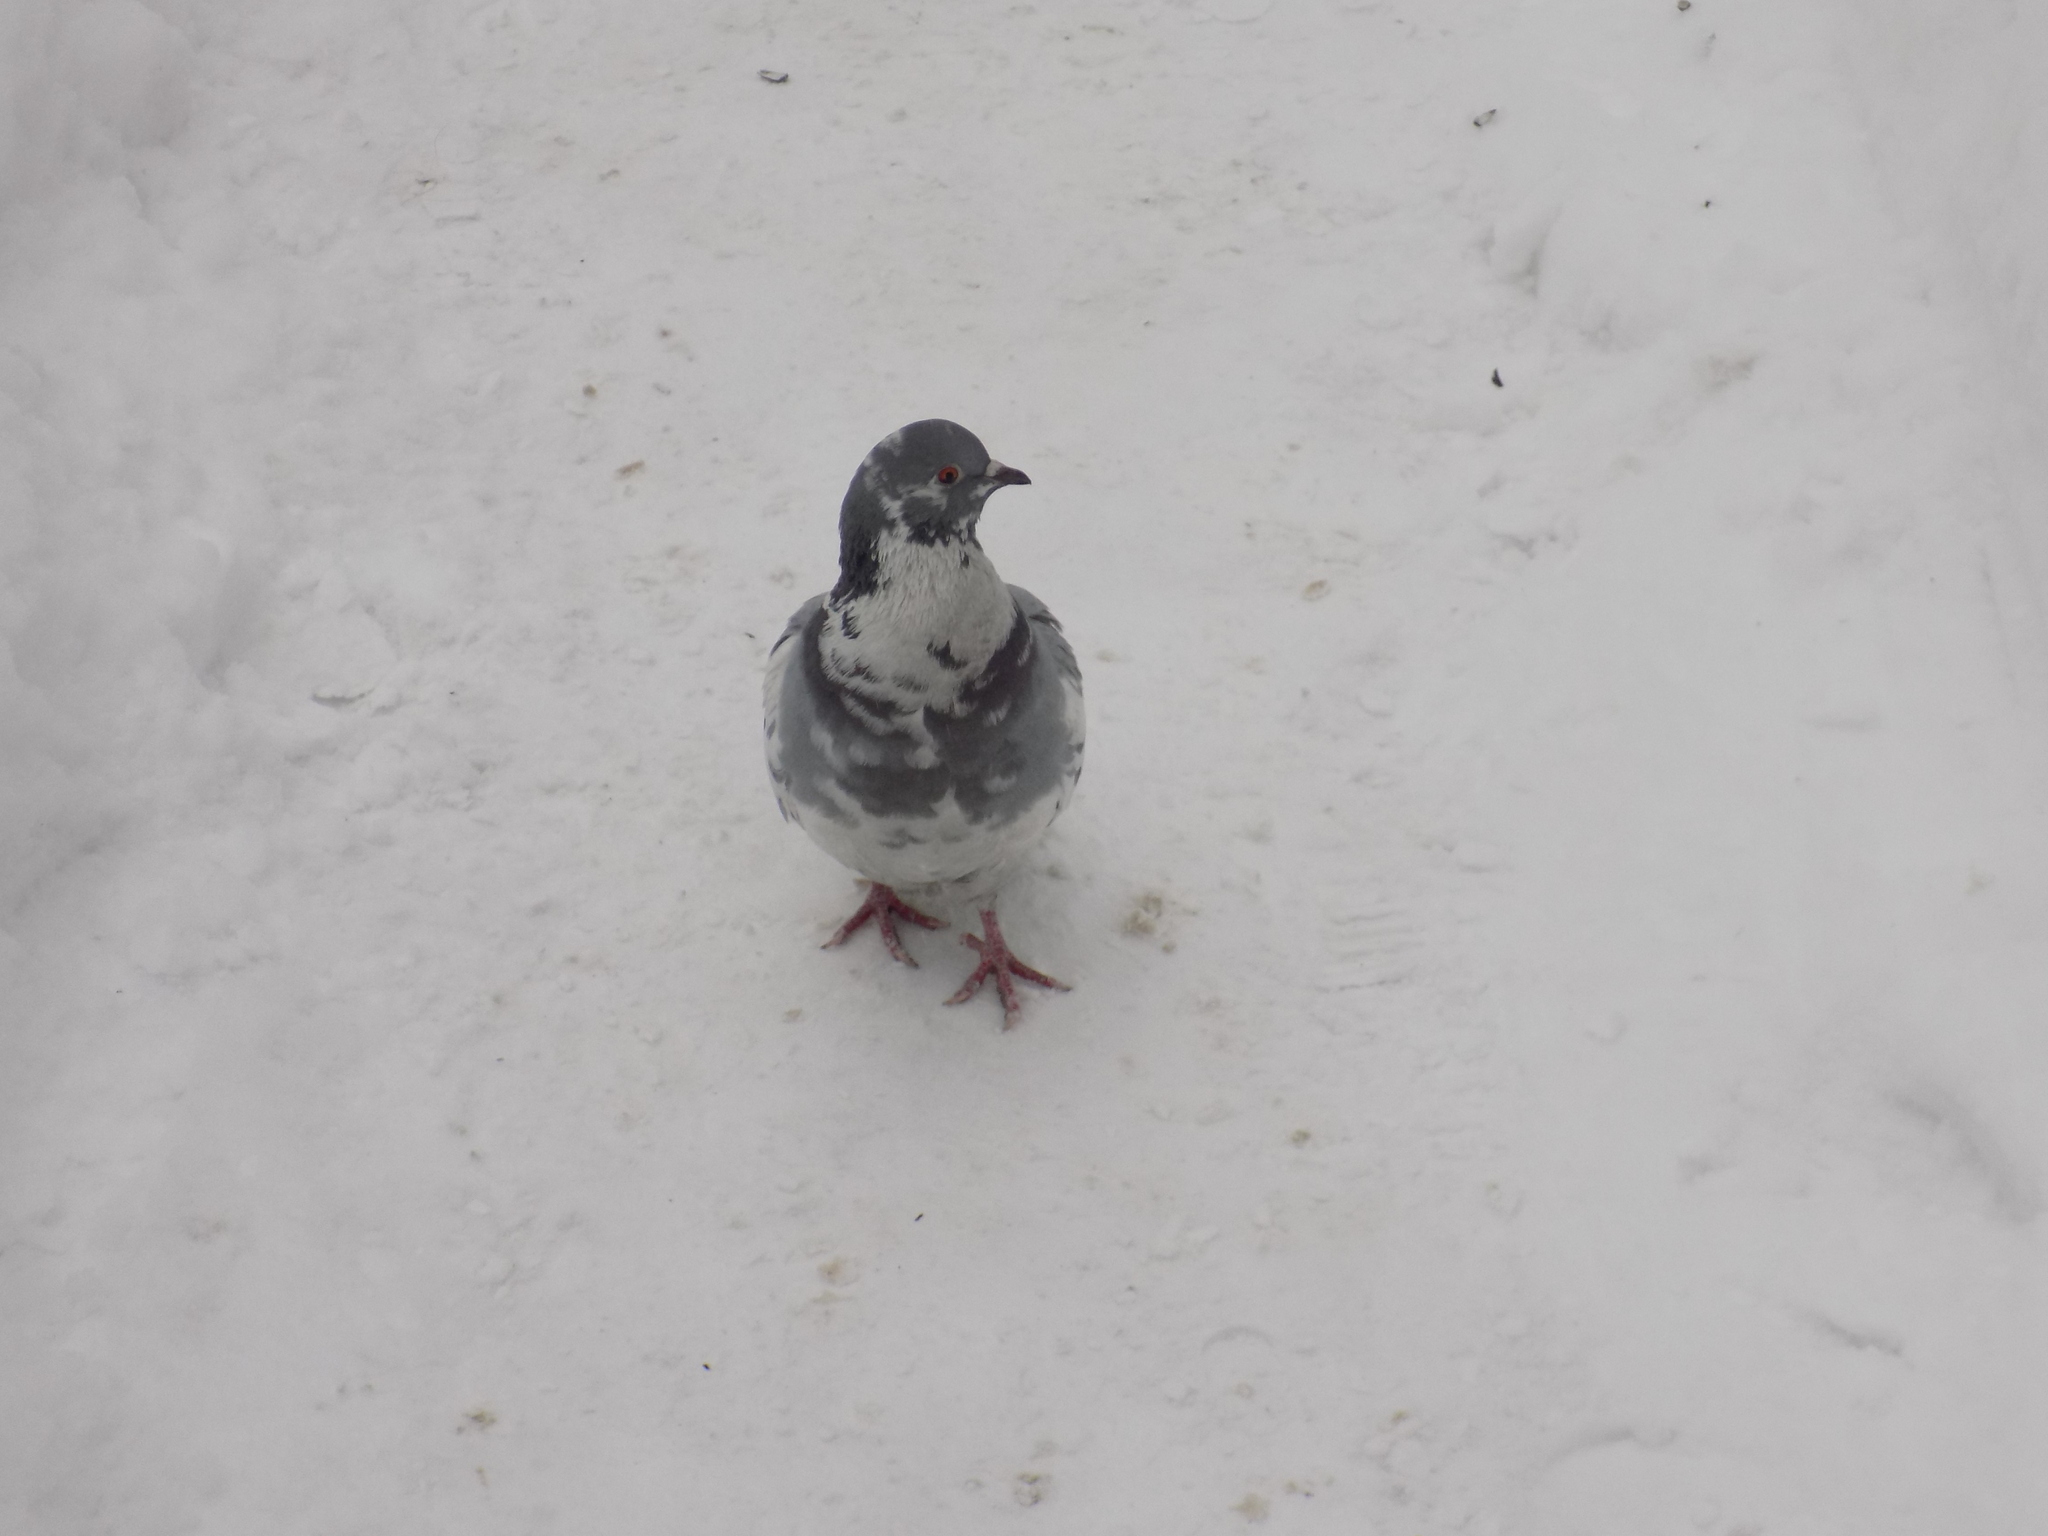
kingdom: Animalia
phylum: Chordata
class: Aves
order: Columbiformes
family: Columbidae
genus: Columba
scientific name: Columba livia
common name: Rock pigeon
